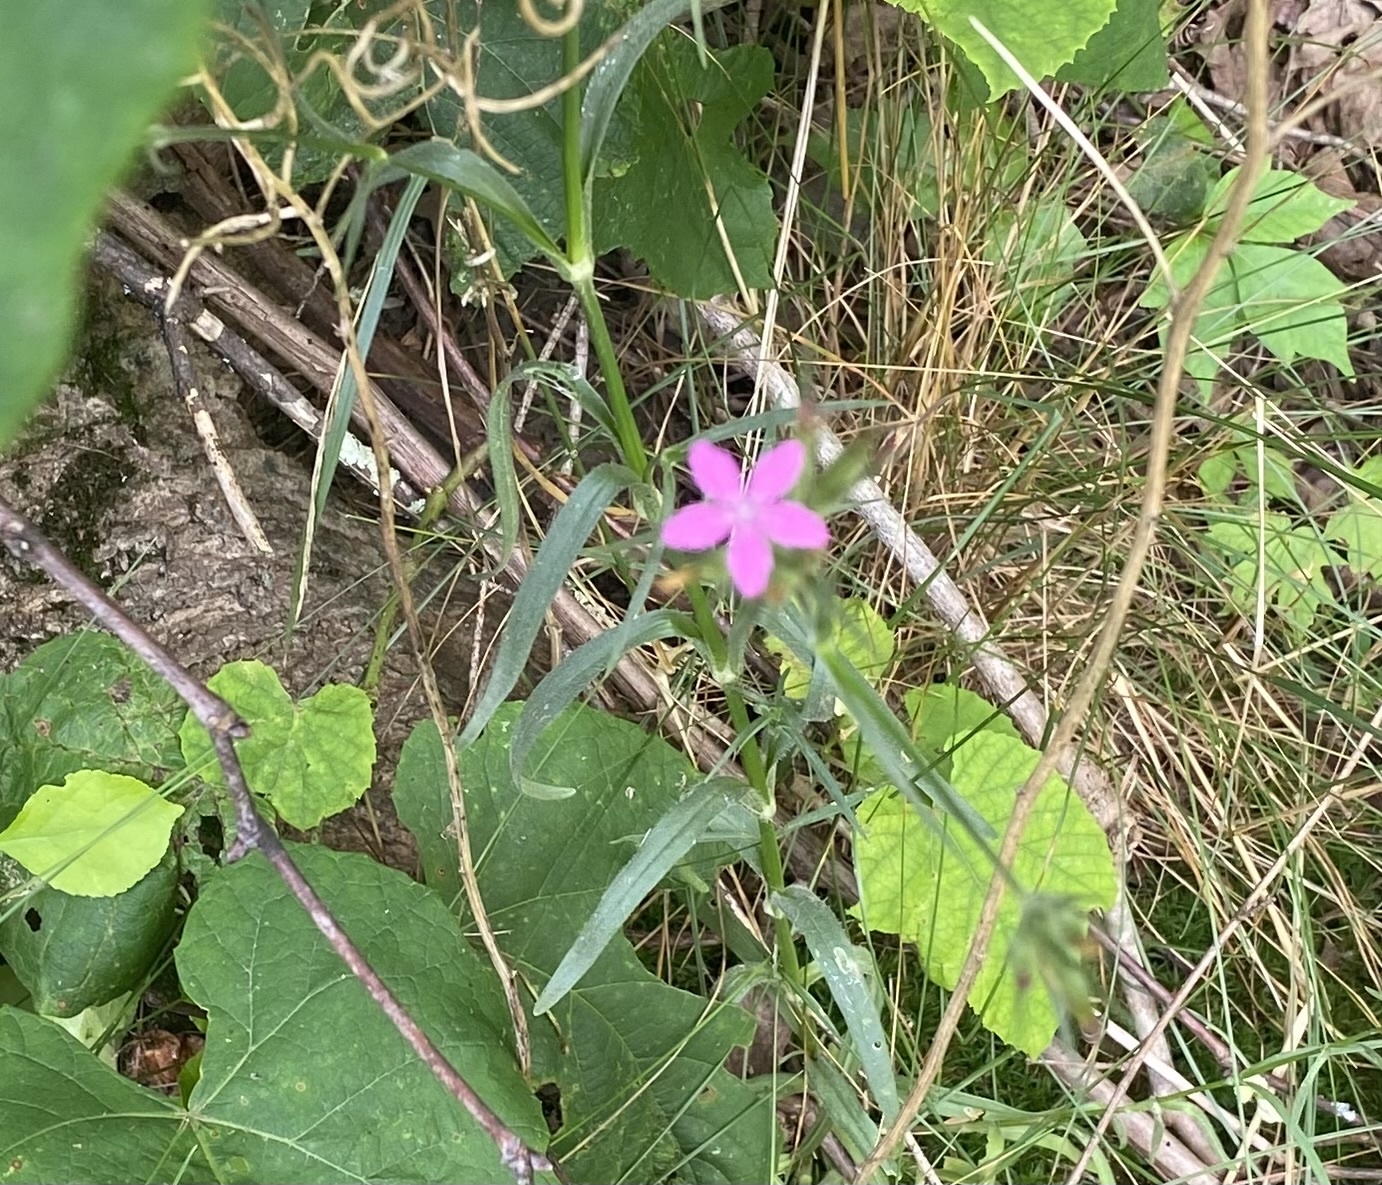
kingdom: Plantae
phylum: Tracheophyta
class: Magnoliopsida
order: Caryophyllales
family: Caryophyllaceae
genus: Dianthus
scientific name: Dianthus armeria
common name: Deptford pink
